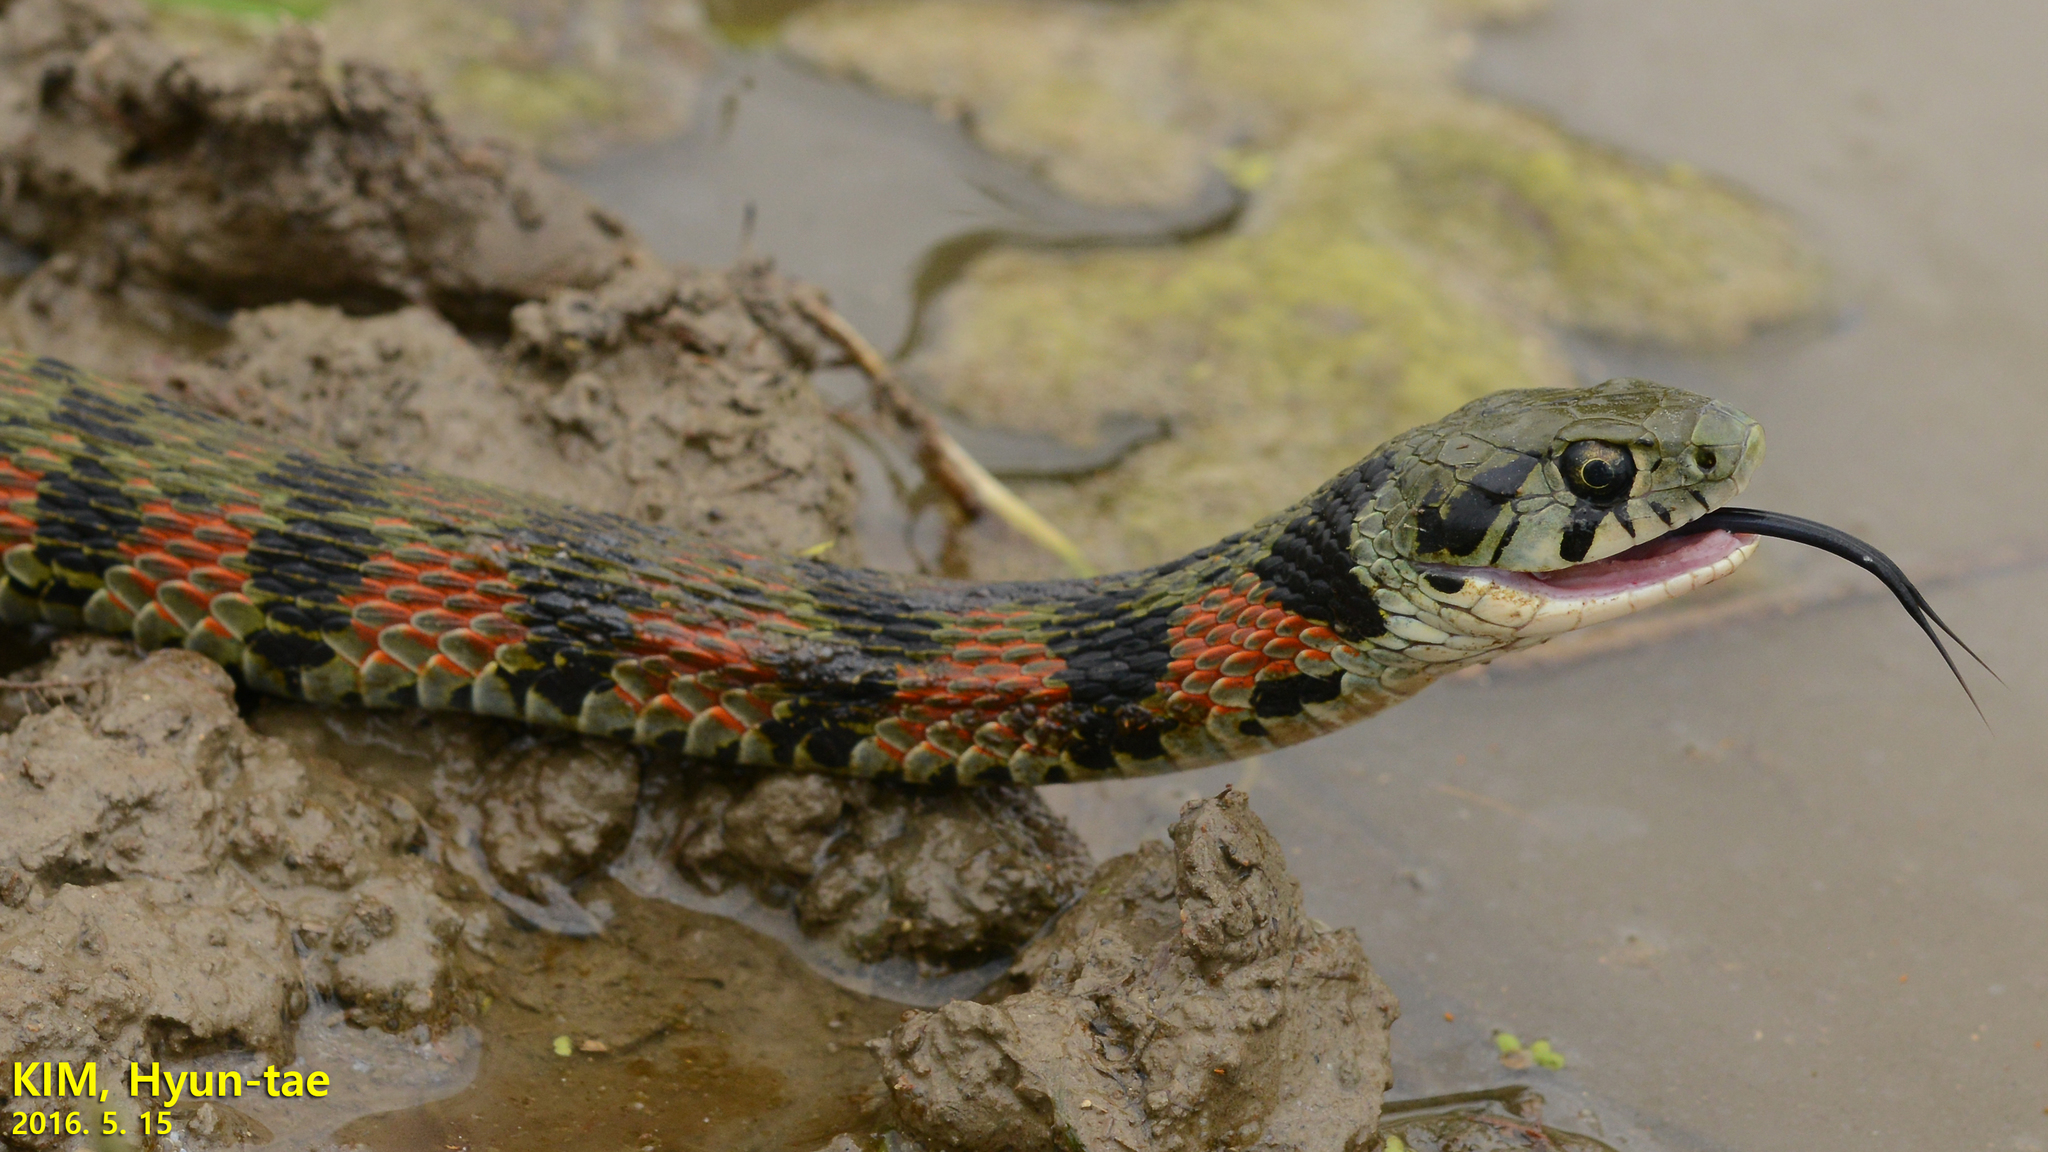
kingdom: Animalia
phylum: Chordata
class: Squamata
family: Colubridae
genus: Rhabdophis
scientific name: Rhabdophis tigrinus
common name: Tiger keelback
